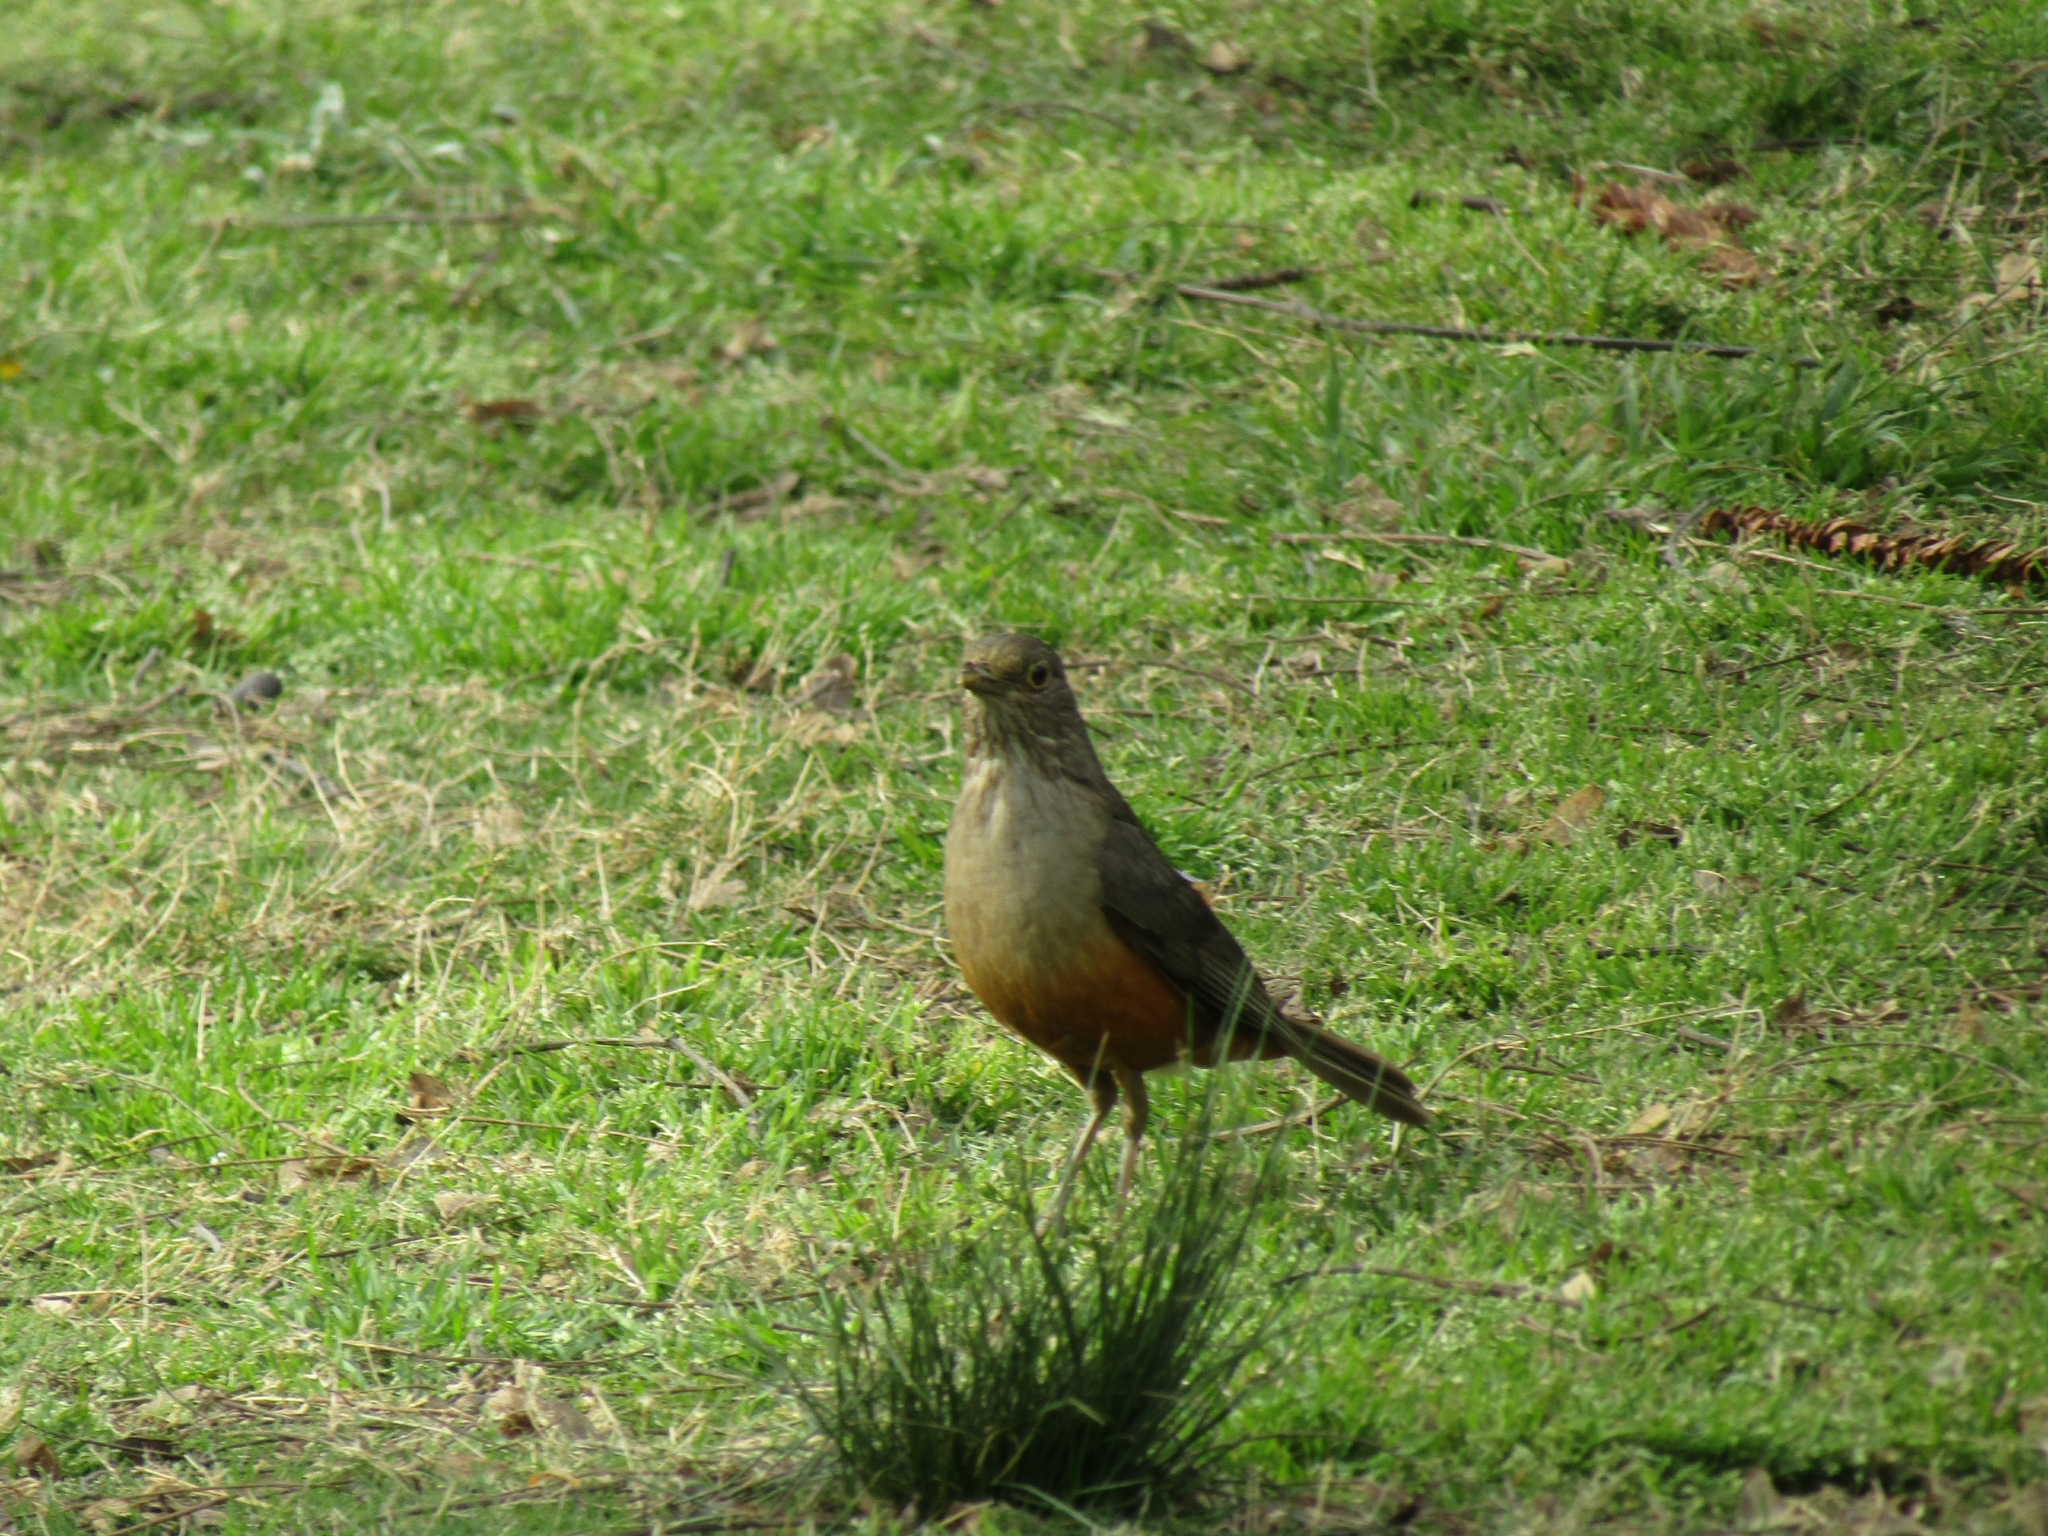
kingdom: Animalia
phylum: Chordata
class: Aves
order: Passeriformes
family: Turdidae
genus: Turdus
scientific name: Turdus rufiventris
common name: Rufous-bellied thrush
